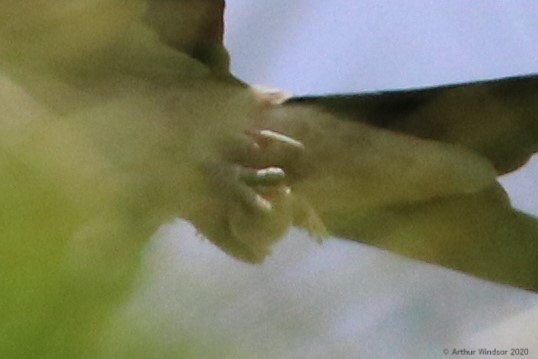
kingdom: Animalia
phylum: Chordata
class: Aves
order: Accipitriformes
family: Accipitridae
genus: Elanoides
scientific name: Elanoides forficatus
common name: Swallow-tailed kite
